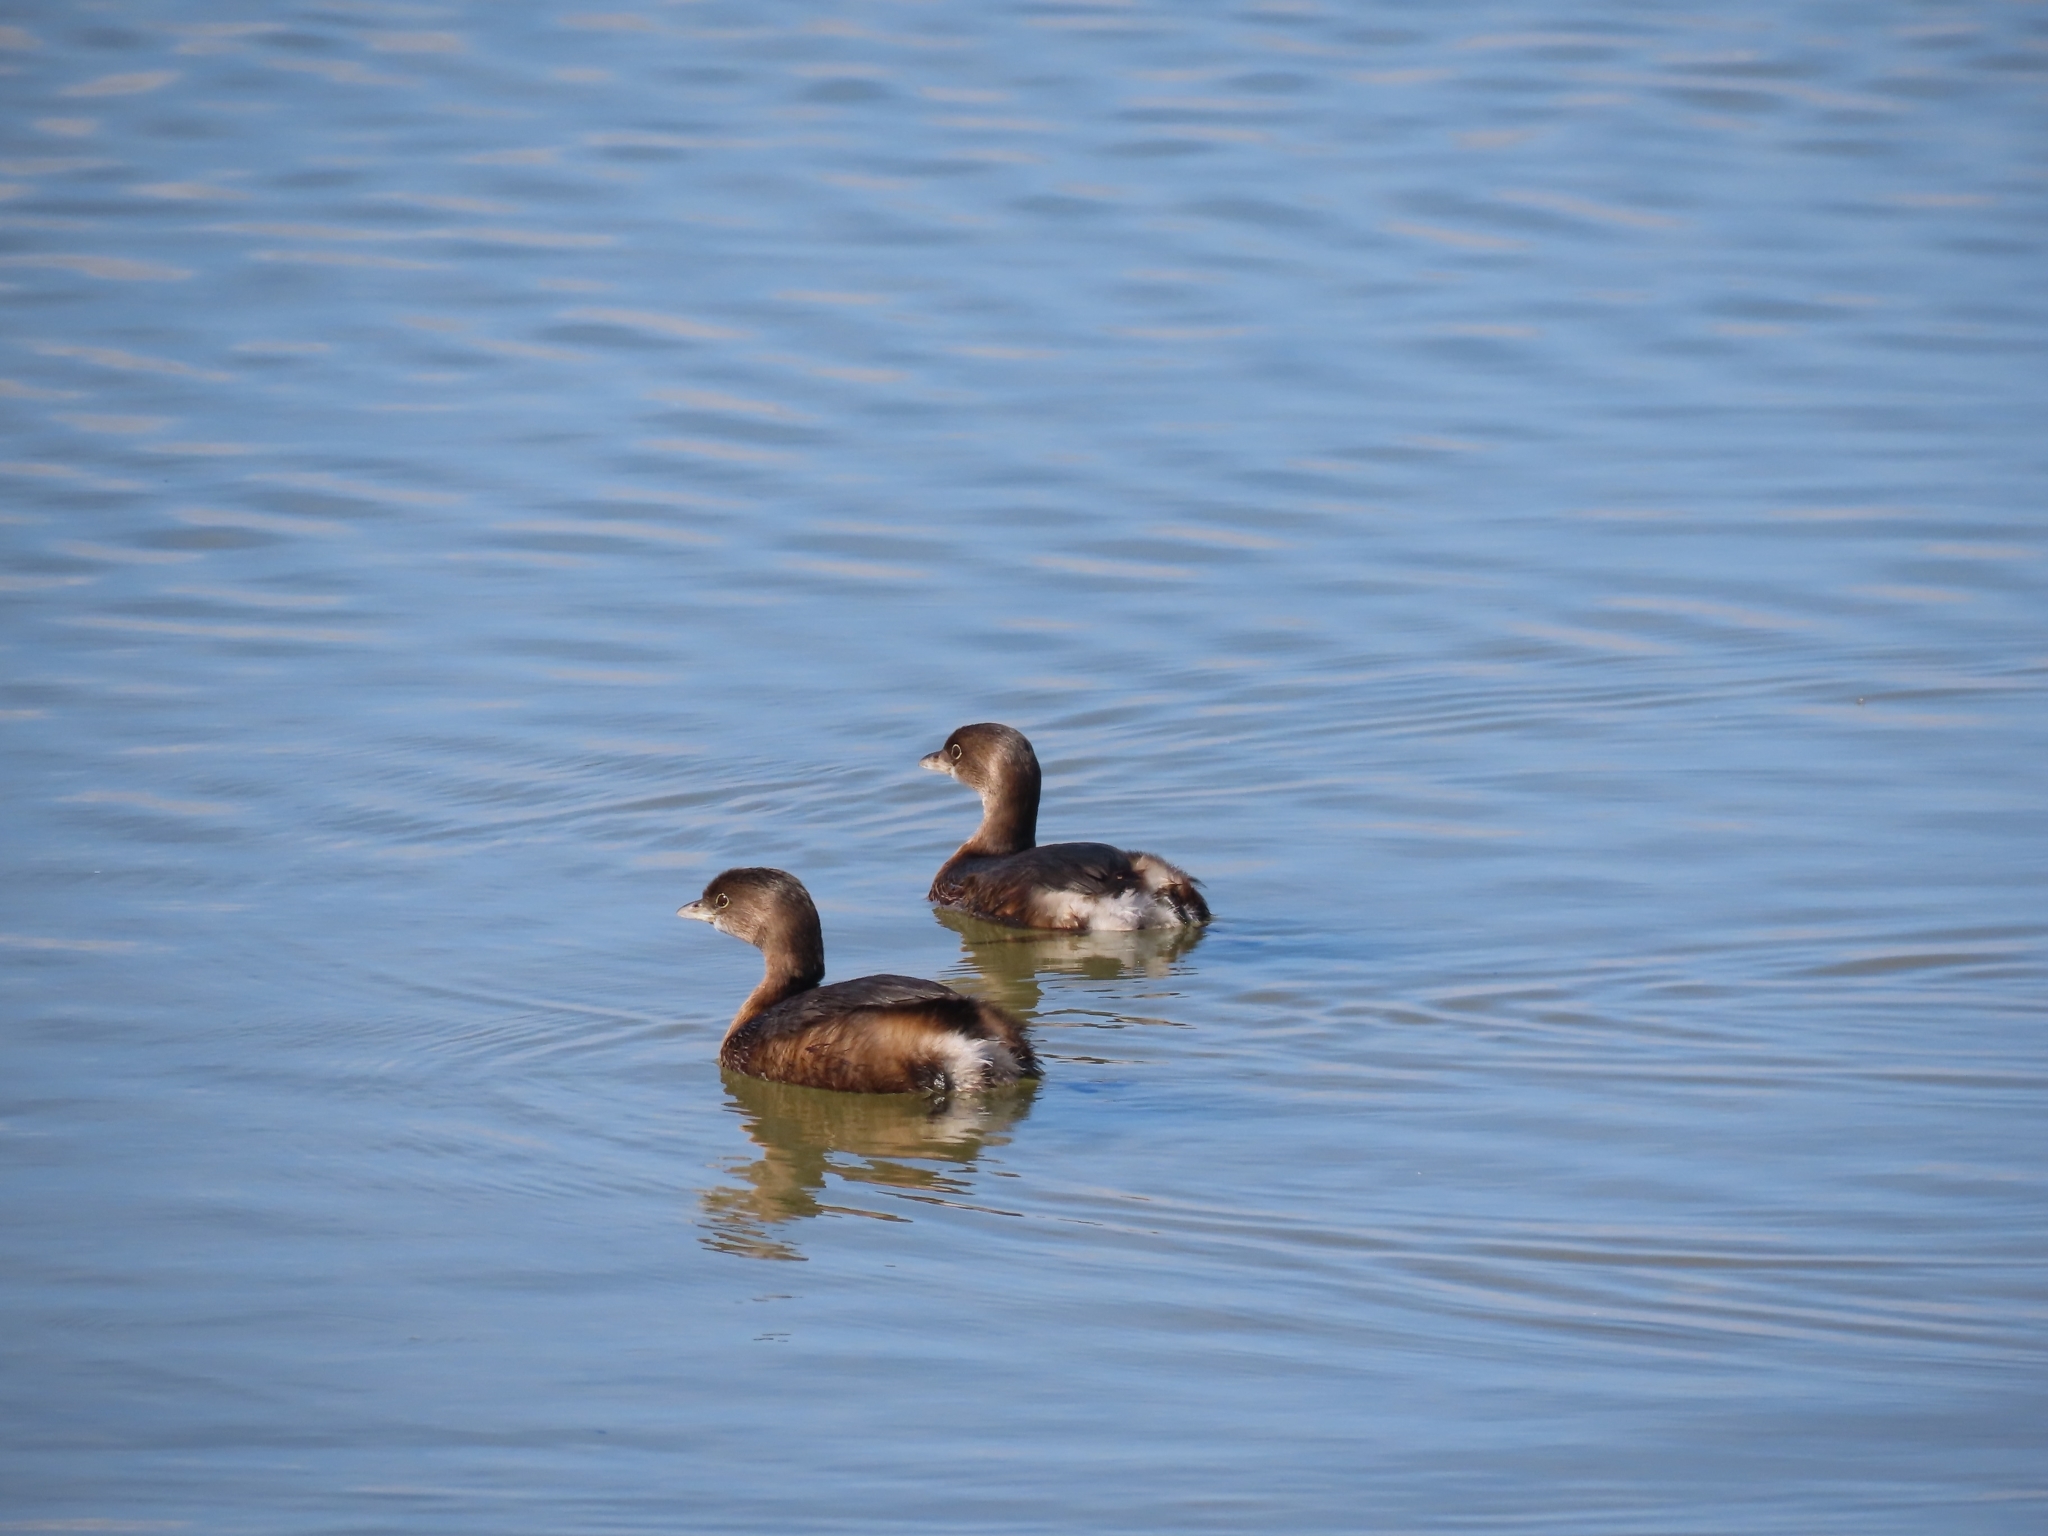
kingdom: Animalia
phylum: Chordata
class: Aves
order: Podicipediformes
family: Podicipedidae
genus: Podilymbus
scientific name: Podilymbus podiceps
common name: Pied-billed grebe
